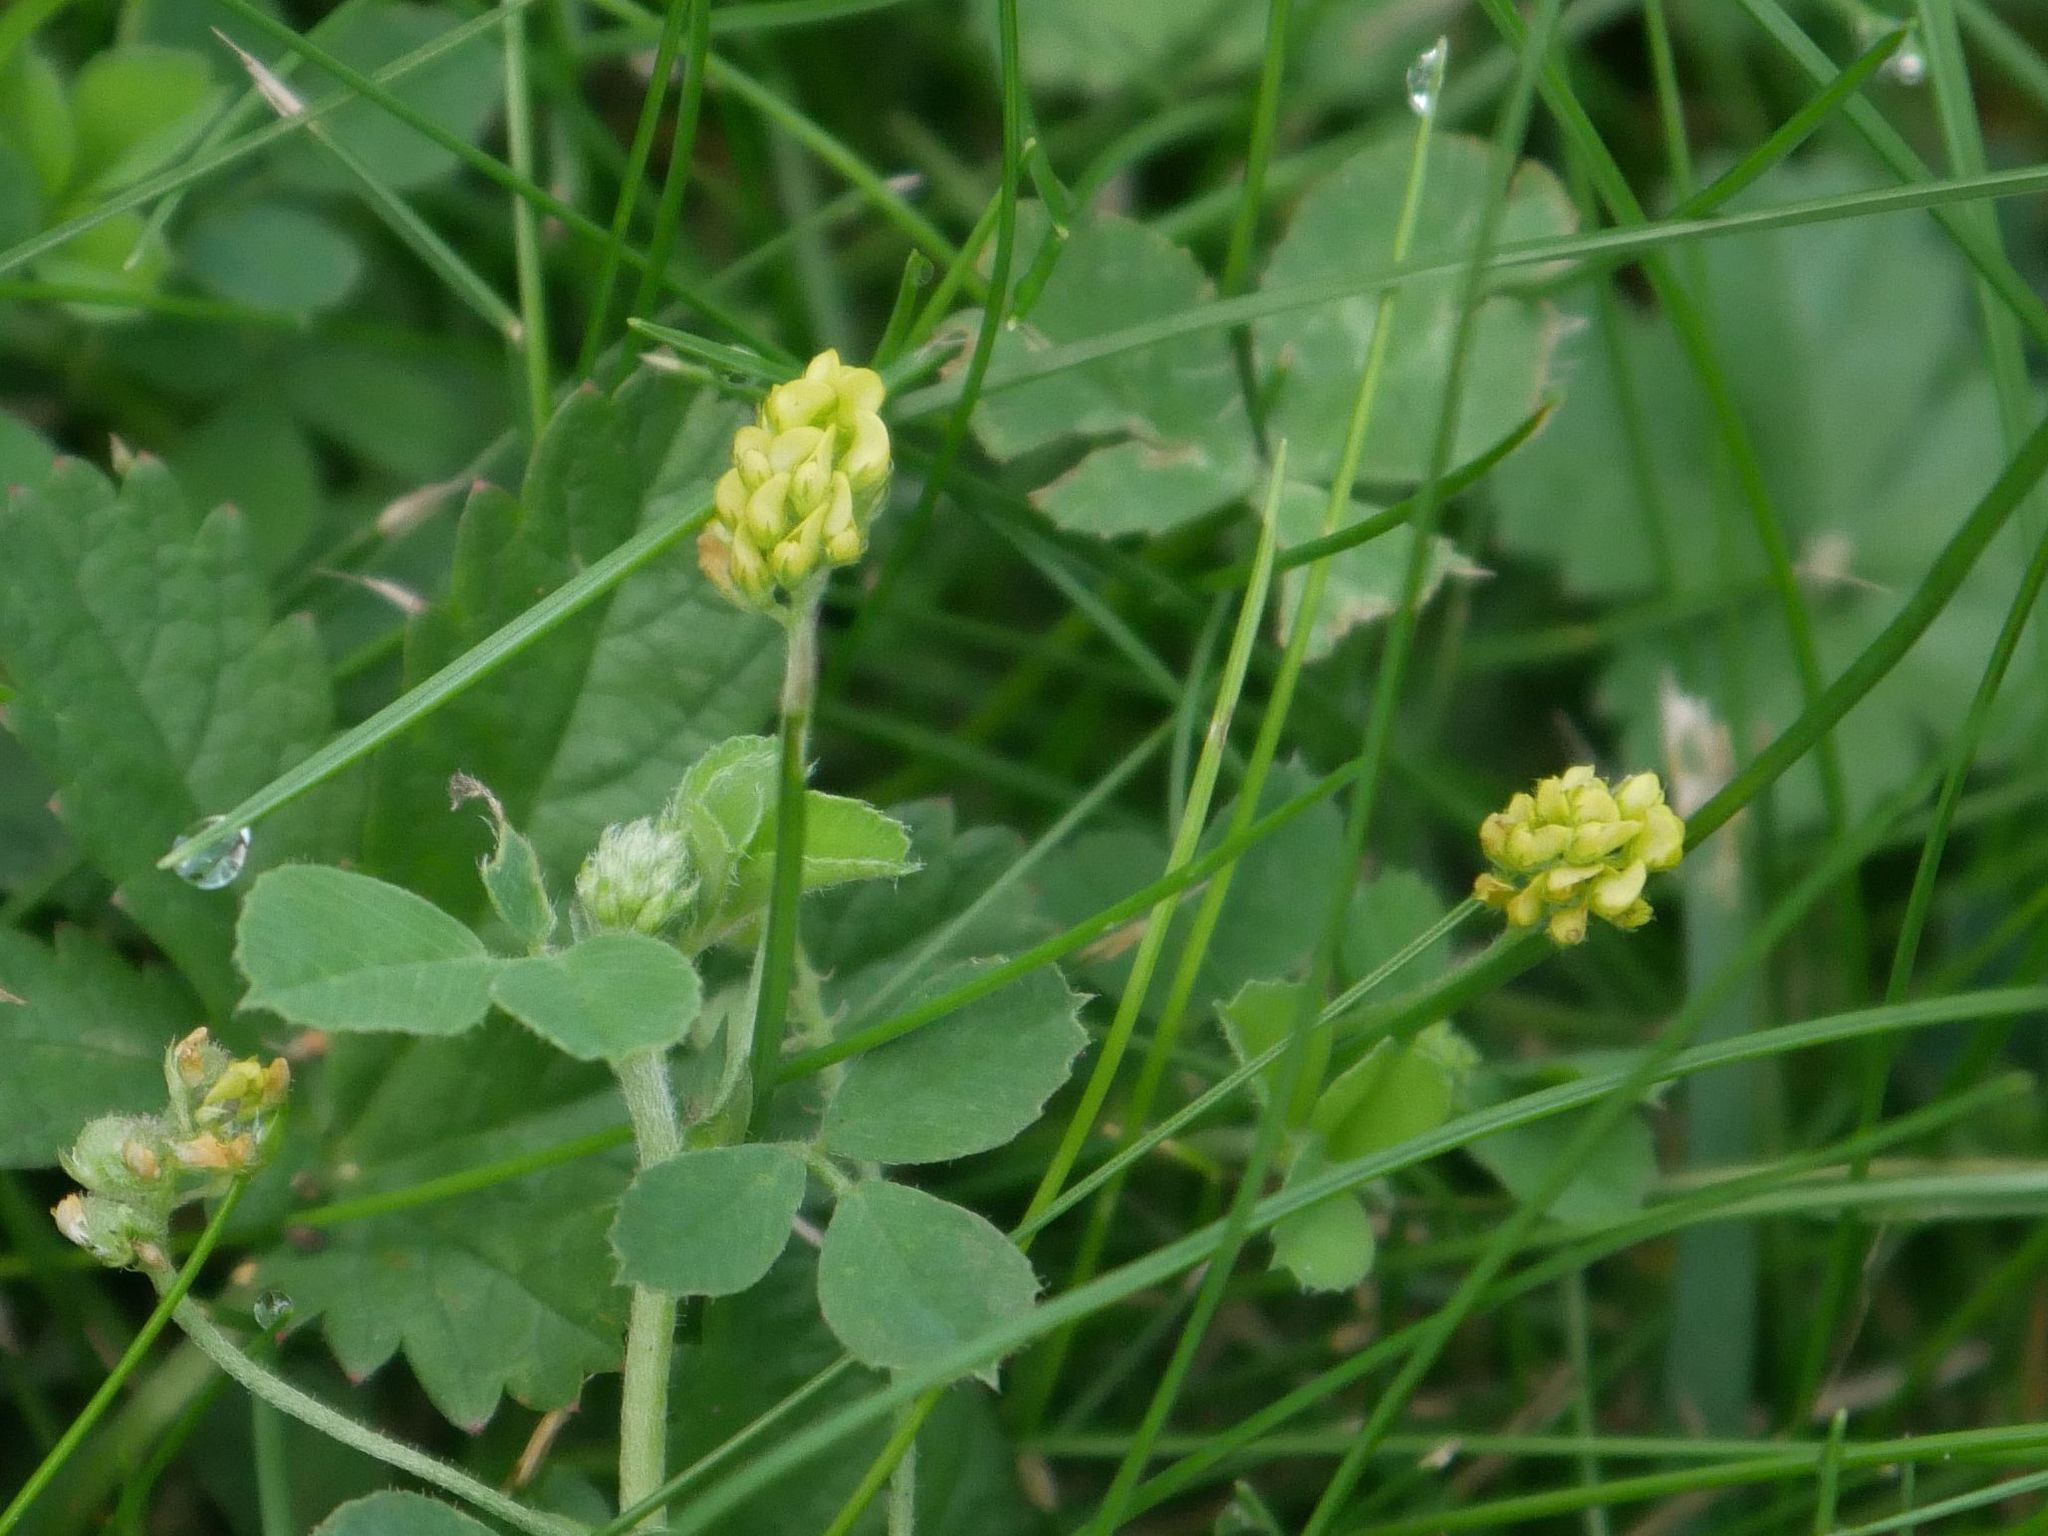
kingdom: Plantae
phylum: Tracheophyta
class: Magnoliopsida
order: Fabales
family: Fabaceae
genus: Medicago
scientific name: Medicago lupulina
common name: Black medick
